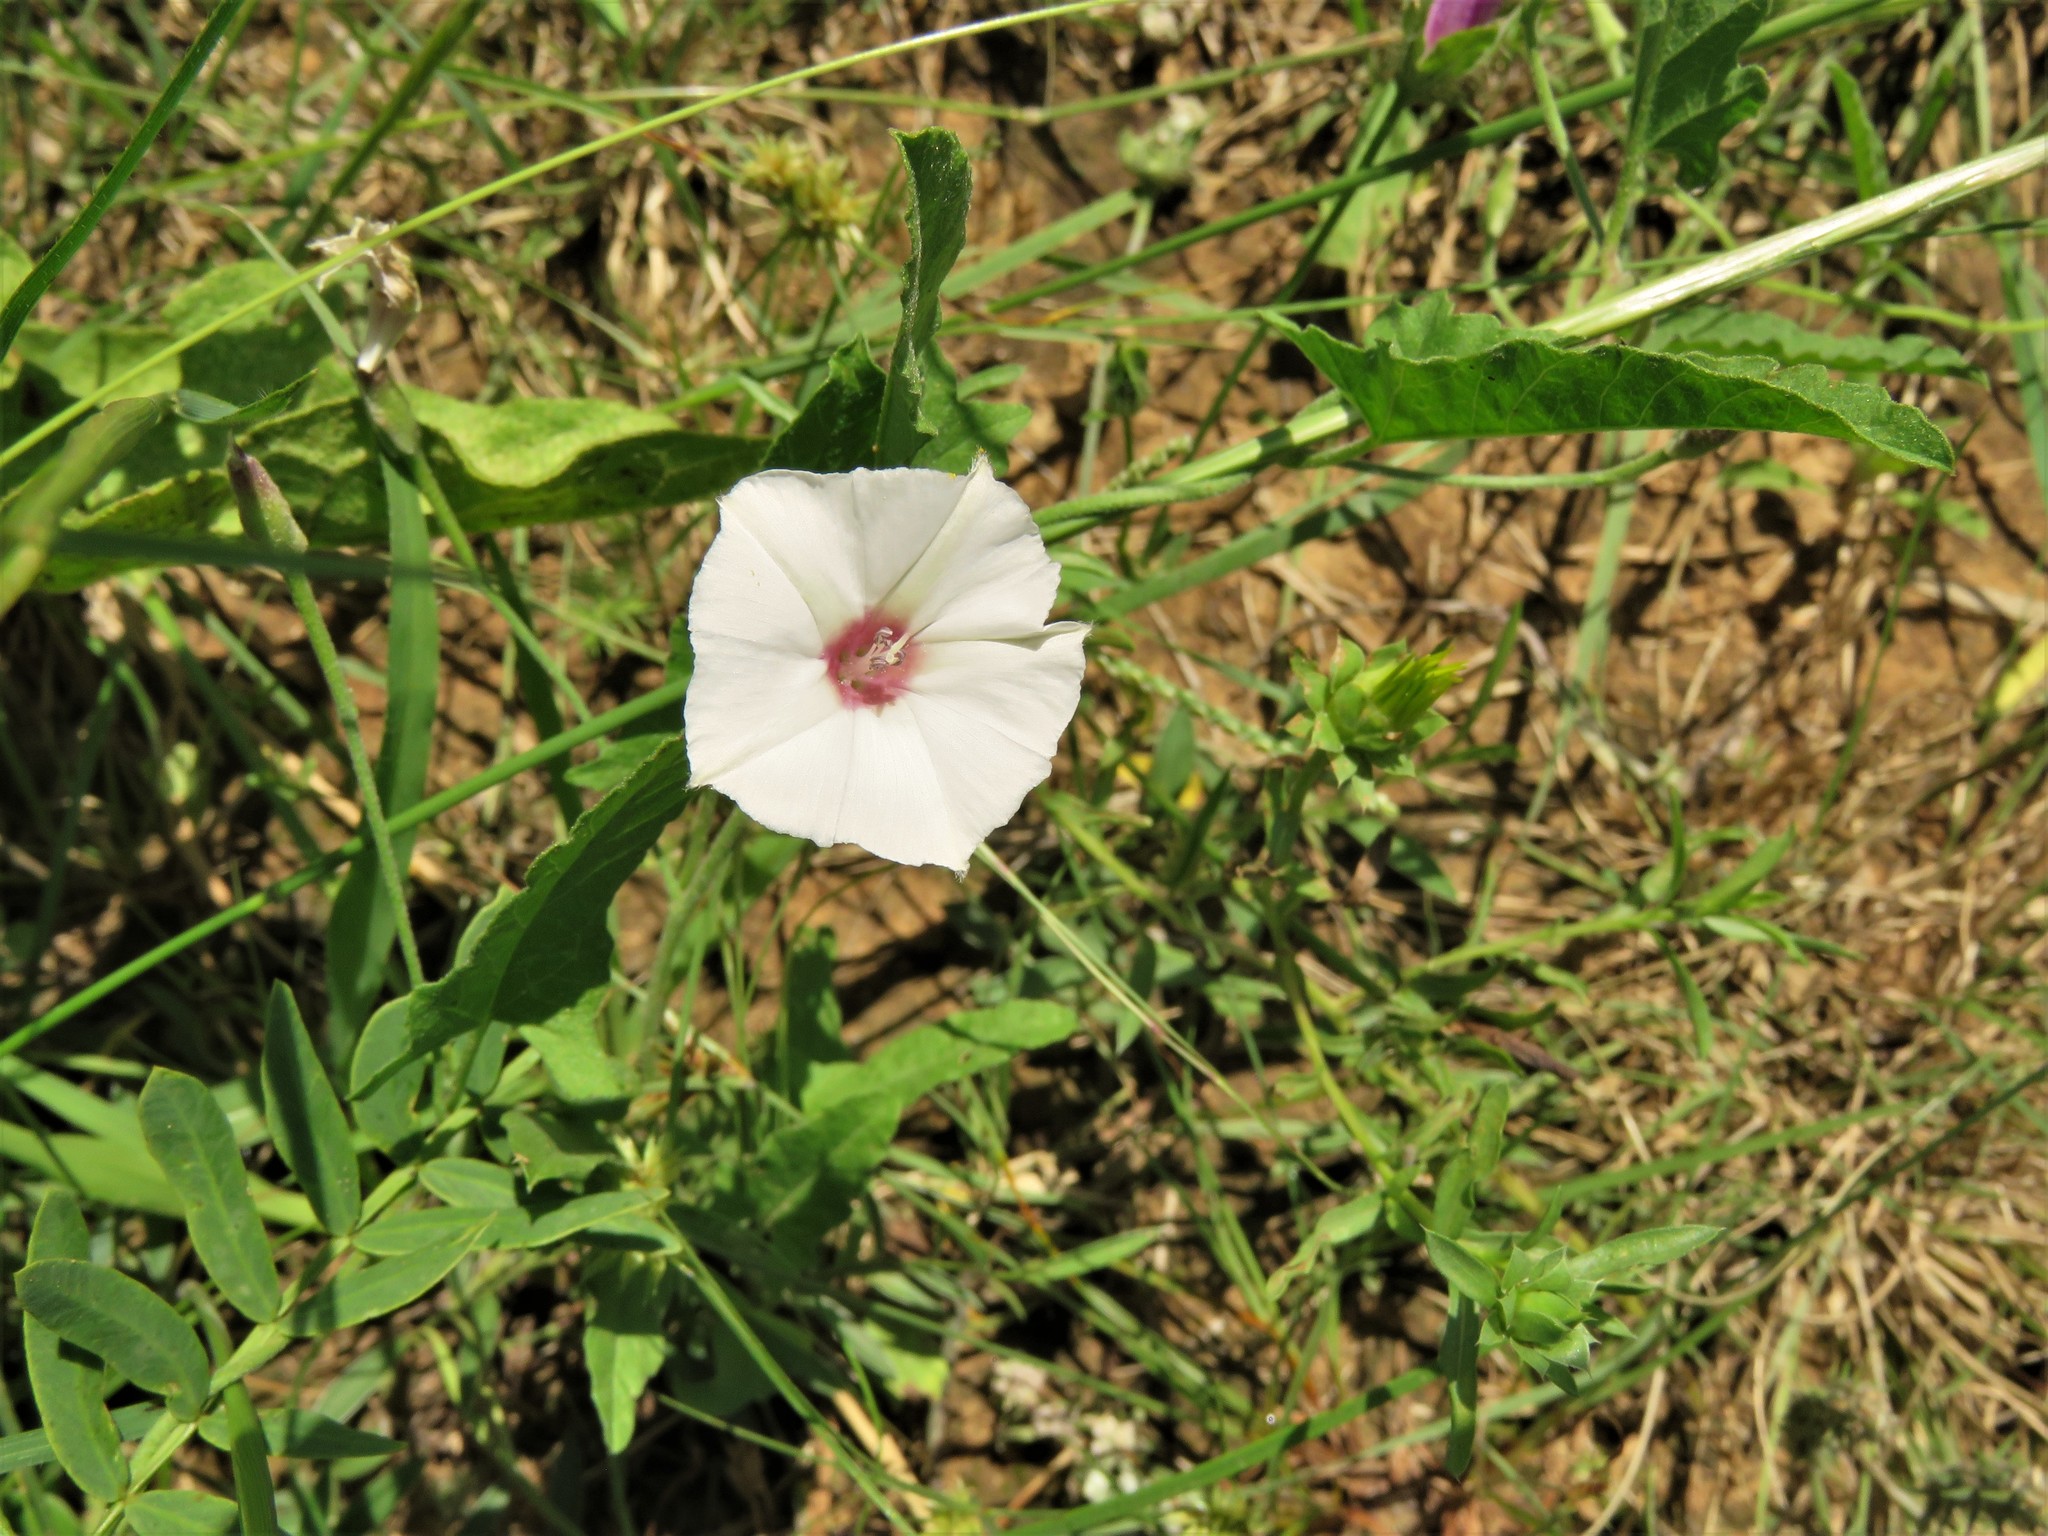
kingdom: Plantae
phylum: Tracheophyta
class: Magnoliopsida
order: Solanales
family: Convolvulaceae
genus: Convolvulus
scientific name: Convolvulus equitans
